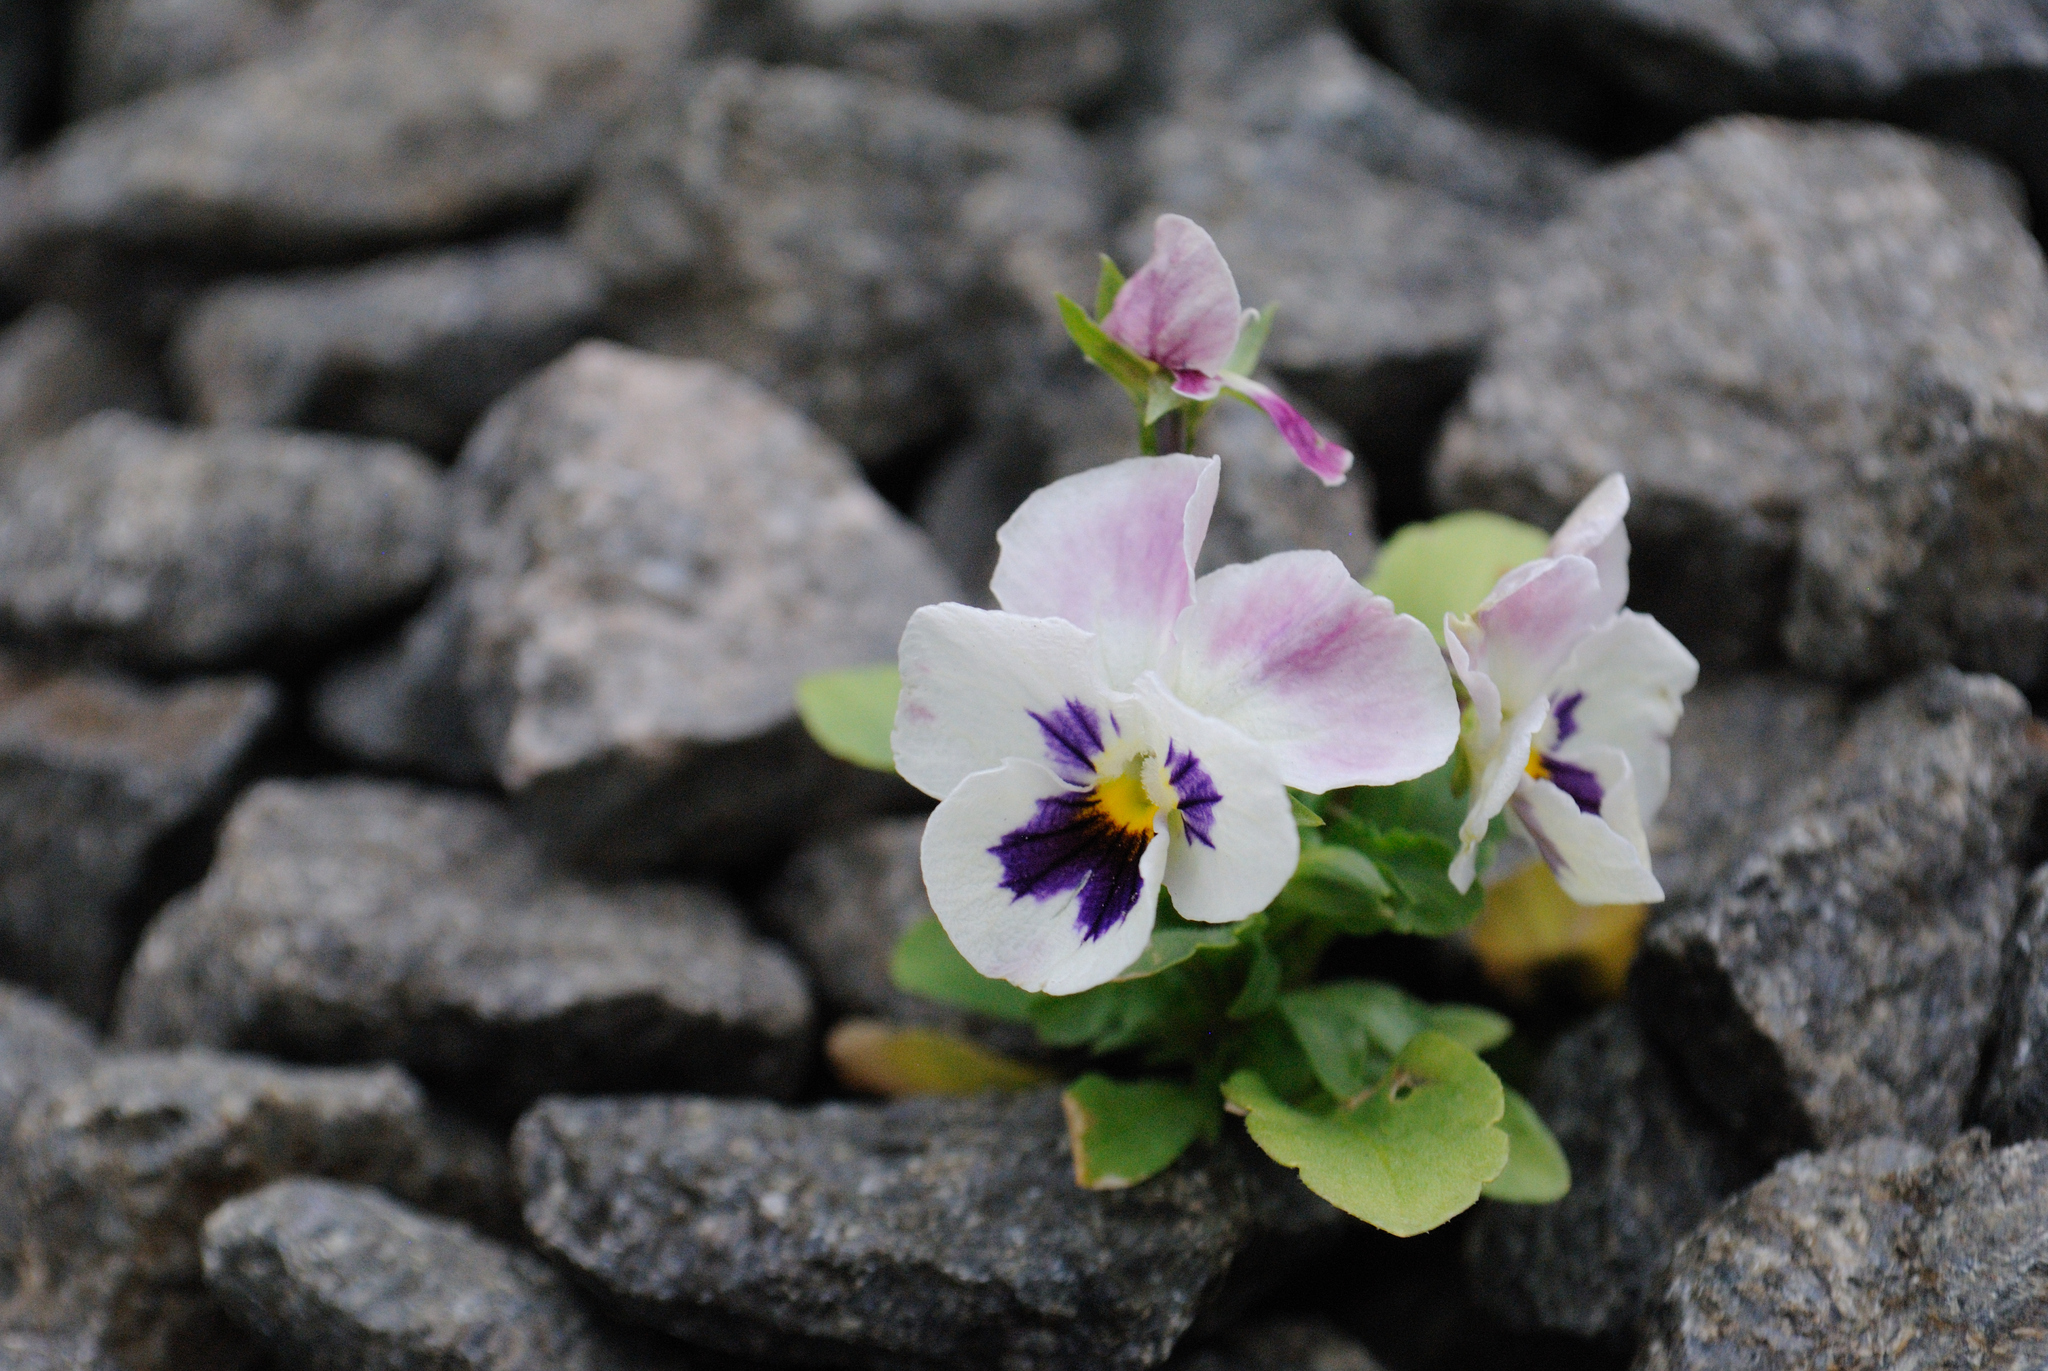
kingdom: Plantae
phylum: Tracheophyta
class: Magnoliopsida
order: Malpighiales
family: Violaceae
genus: Viola
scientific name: Viola wittrockiana
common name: Garden pansy
